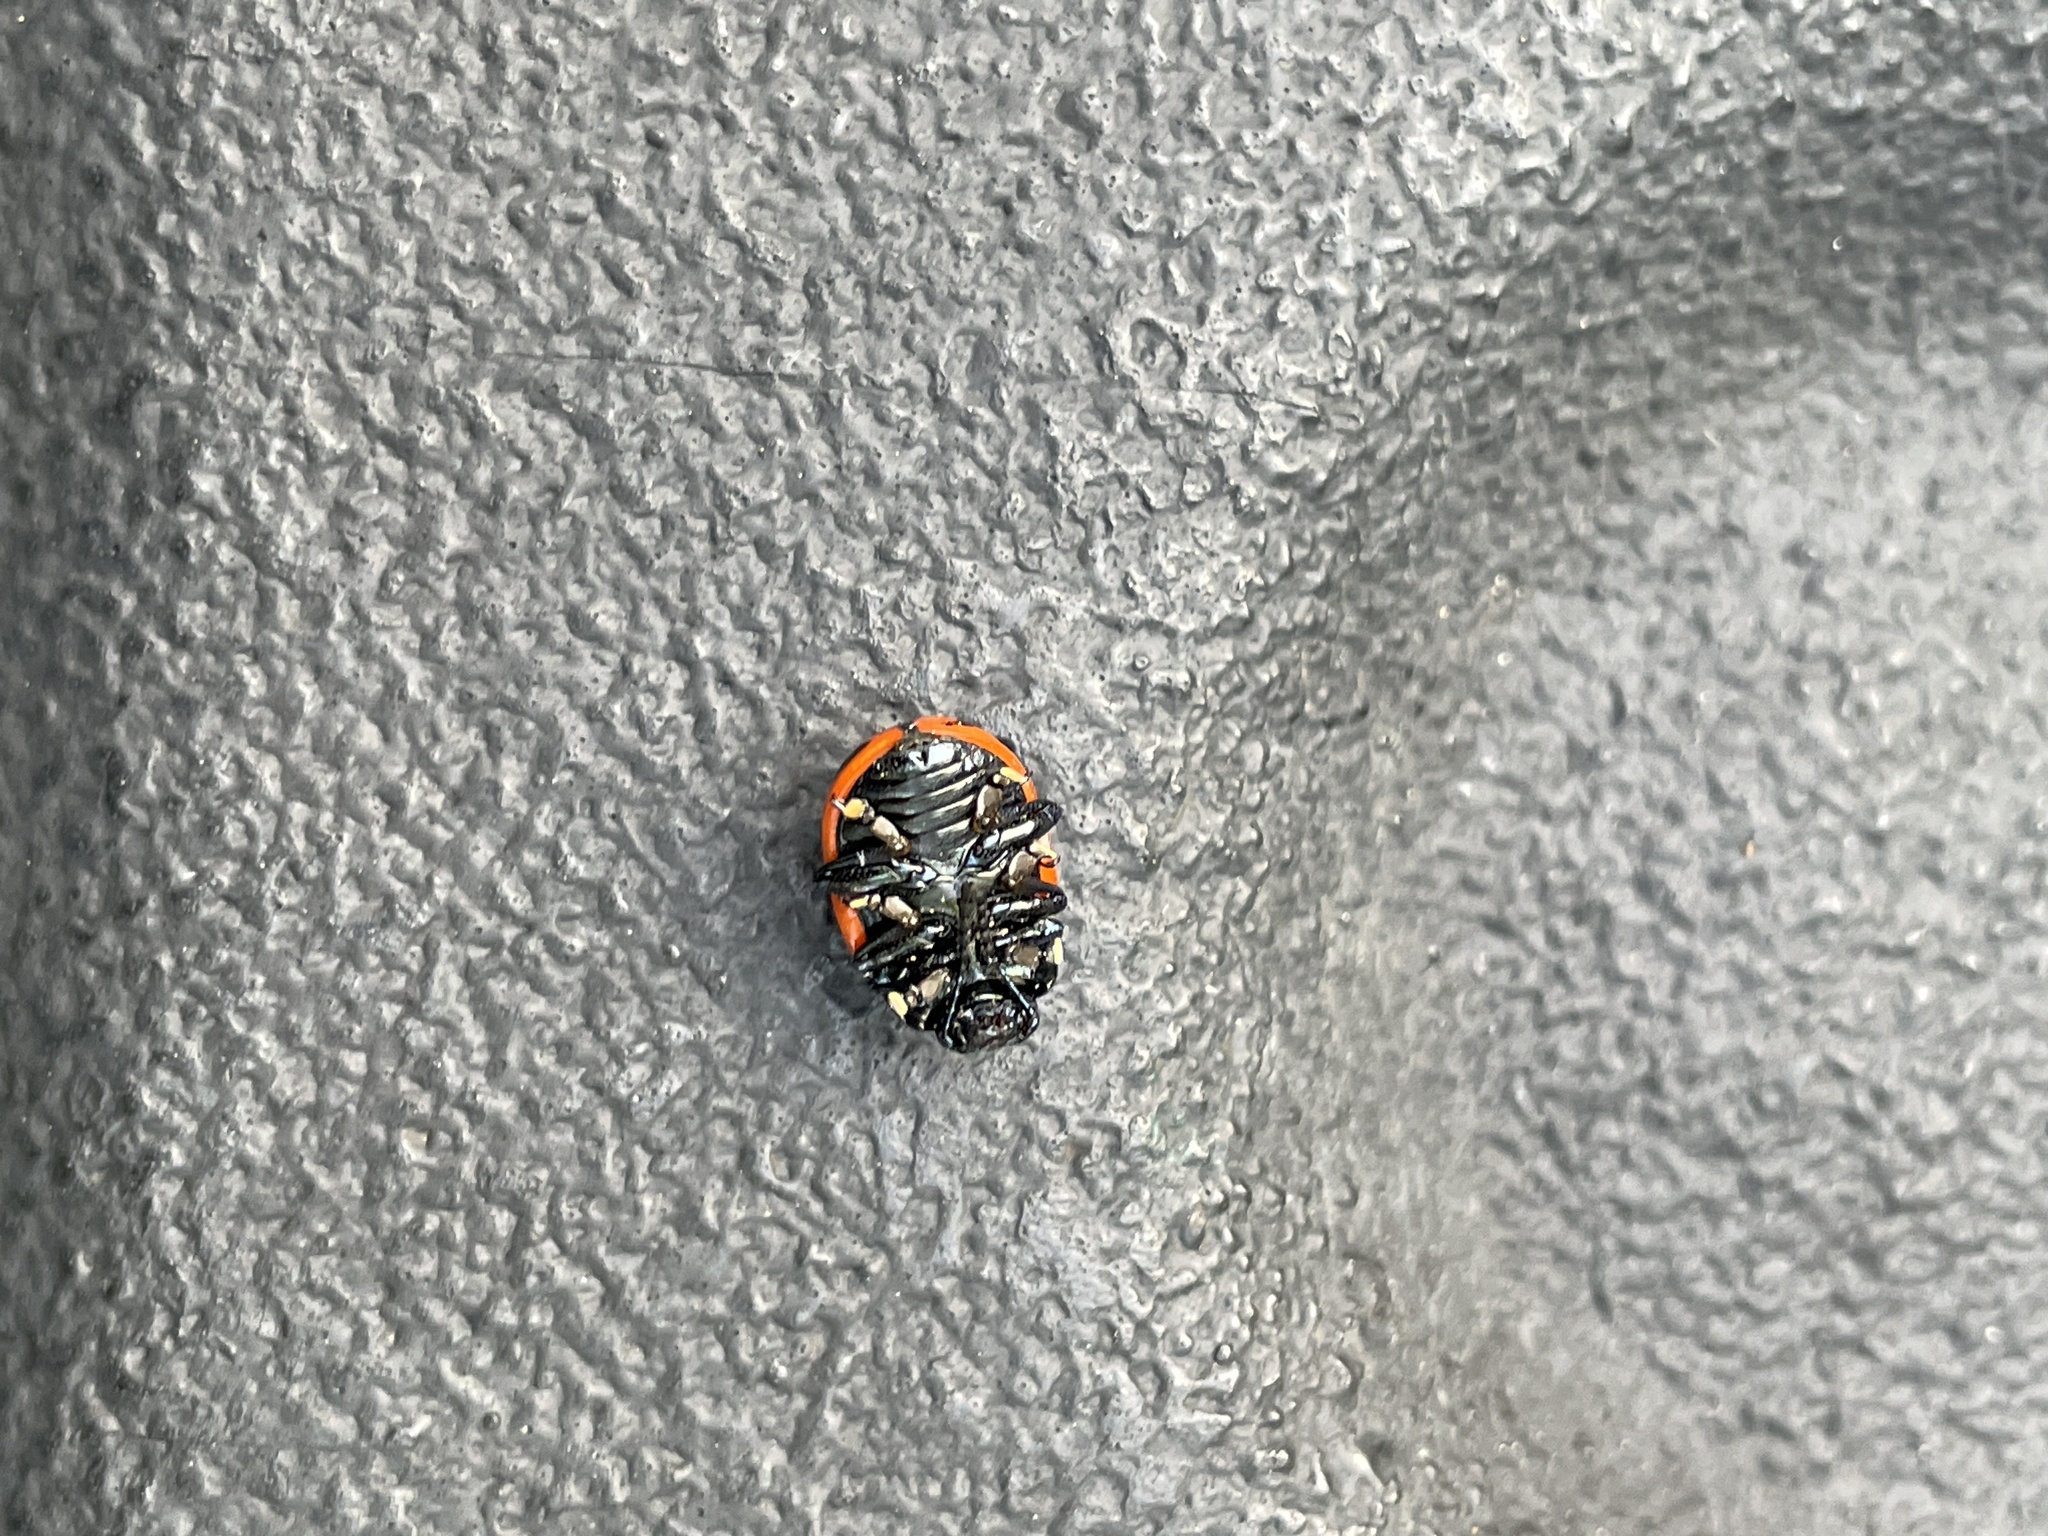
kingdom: Animalia
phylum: Arthropoda
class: Insecta
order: Coleoptera
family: Chrysomelidae
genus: Labidomera
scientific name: Labidomera clivicollis
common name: Swamp milkweed leaf beetle
